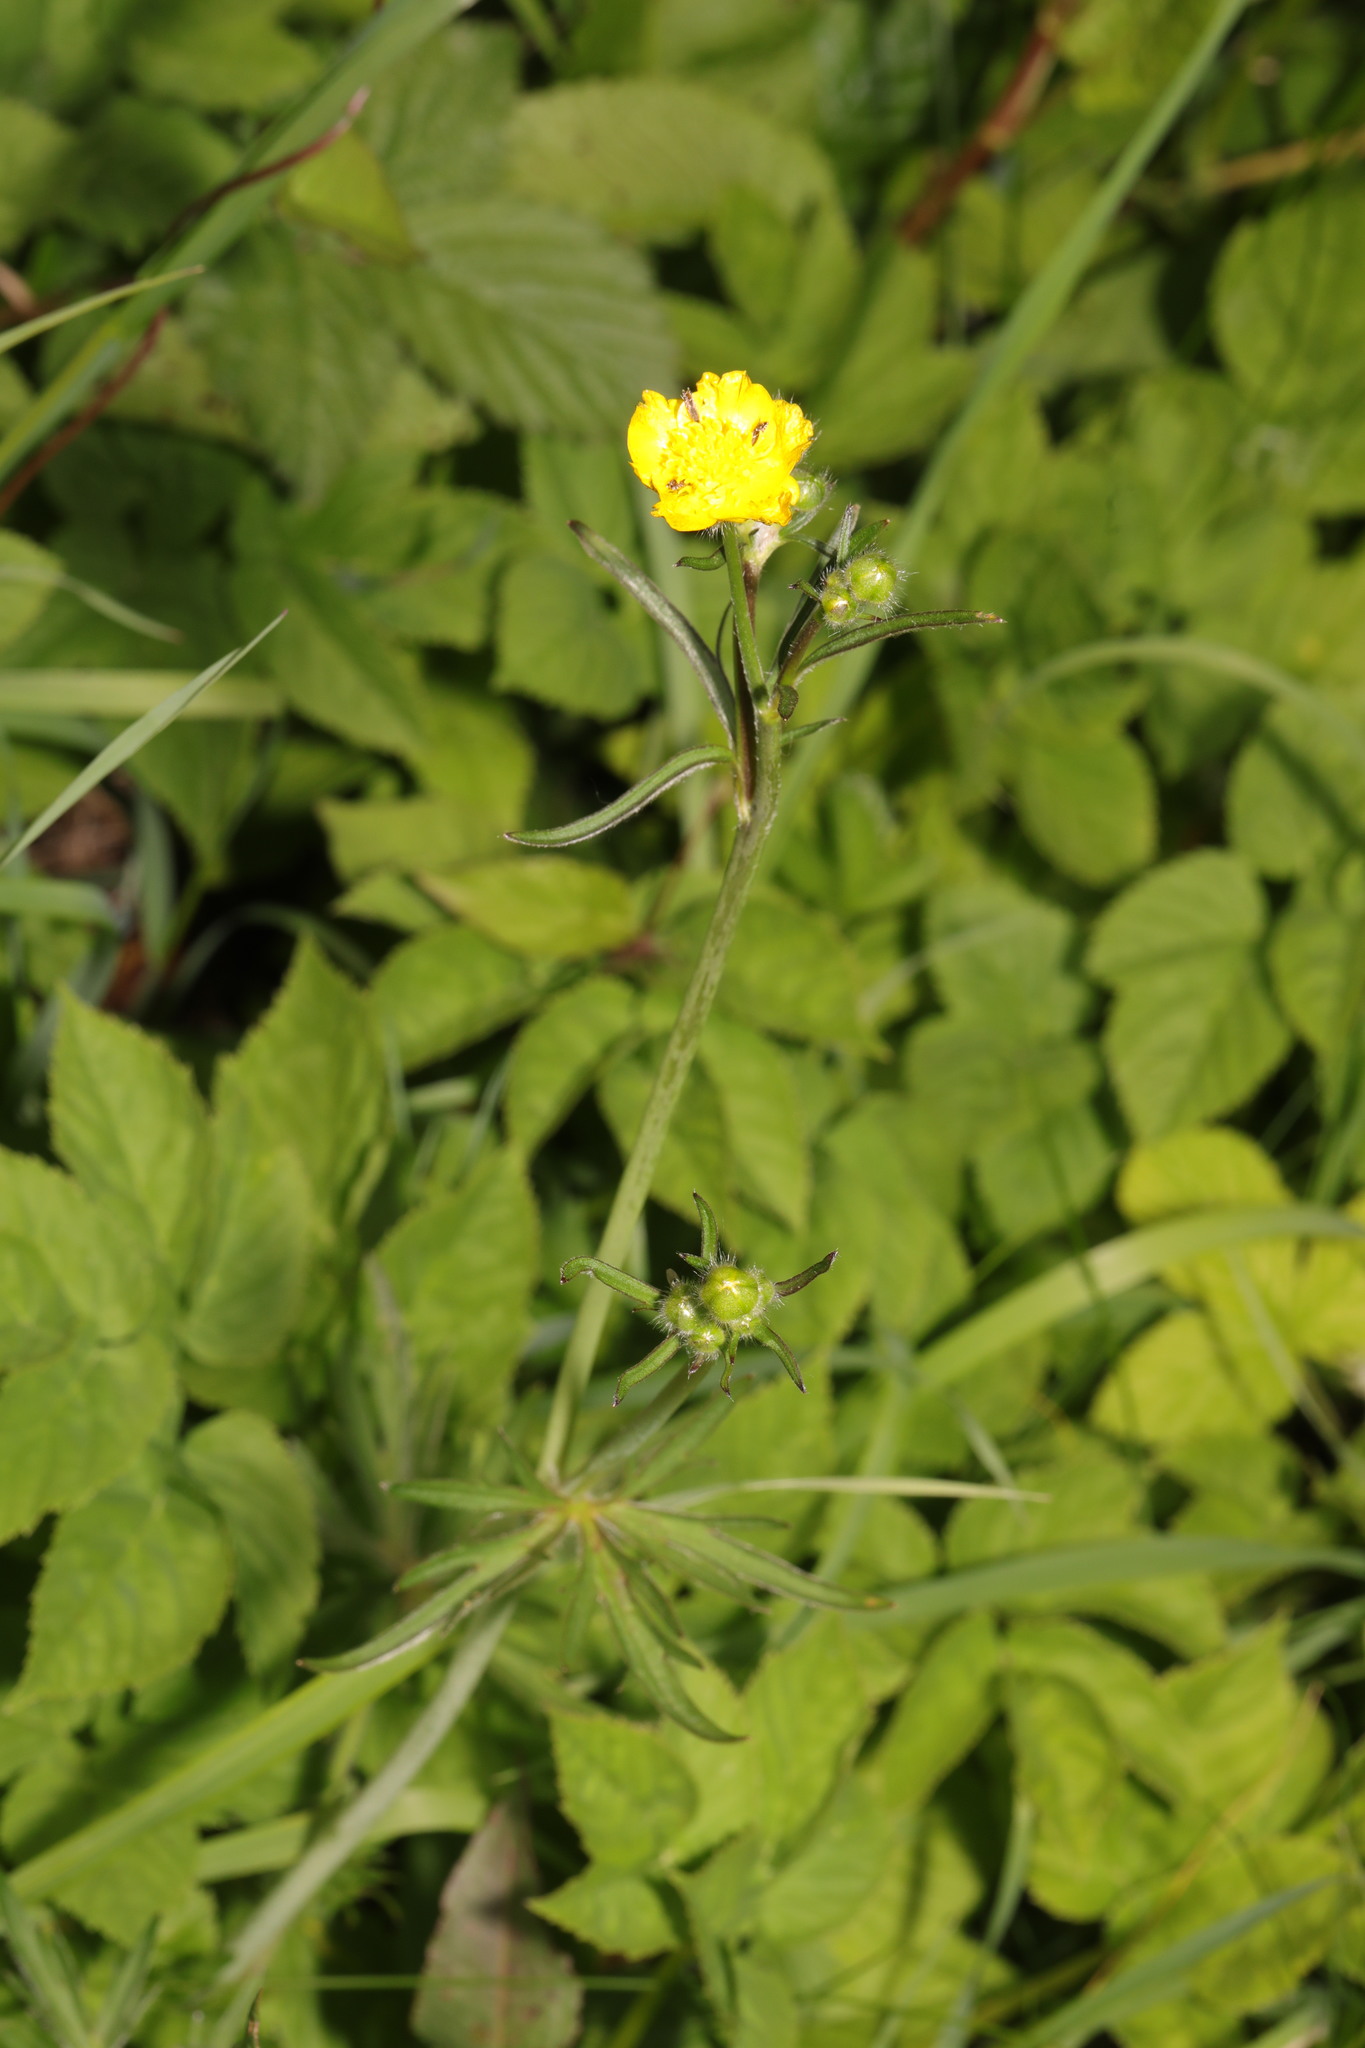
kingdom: Plantae
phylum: Tracheophyta
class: Magnoliopsida
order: Ranunculales
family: Ranunculaceae
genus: Ranunculus
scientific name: Ranunculus acris
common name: Meadow buttercup
